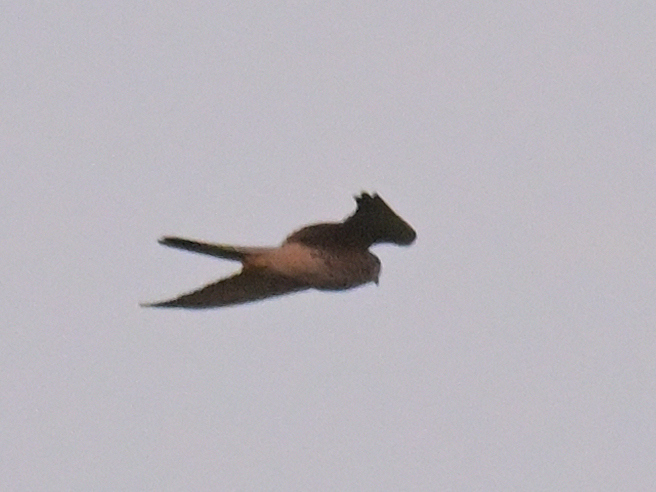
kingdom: Animalia
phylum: Chordata
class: Aves
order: Falconiformes
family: Falconidae
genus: Falco
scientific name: Falco tinnunculus
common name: Common kestrel
